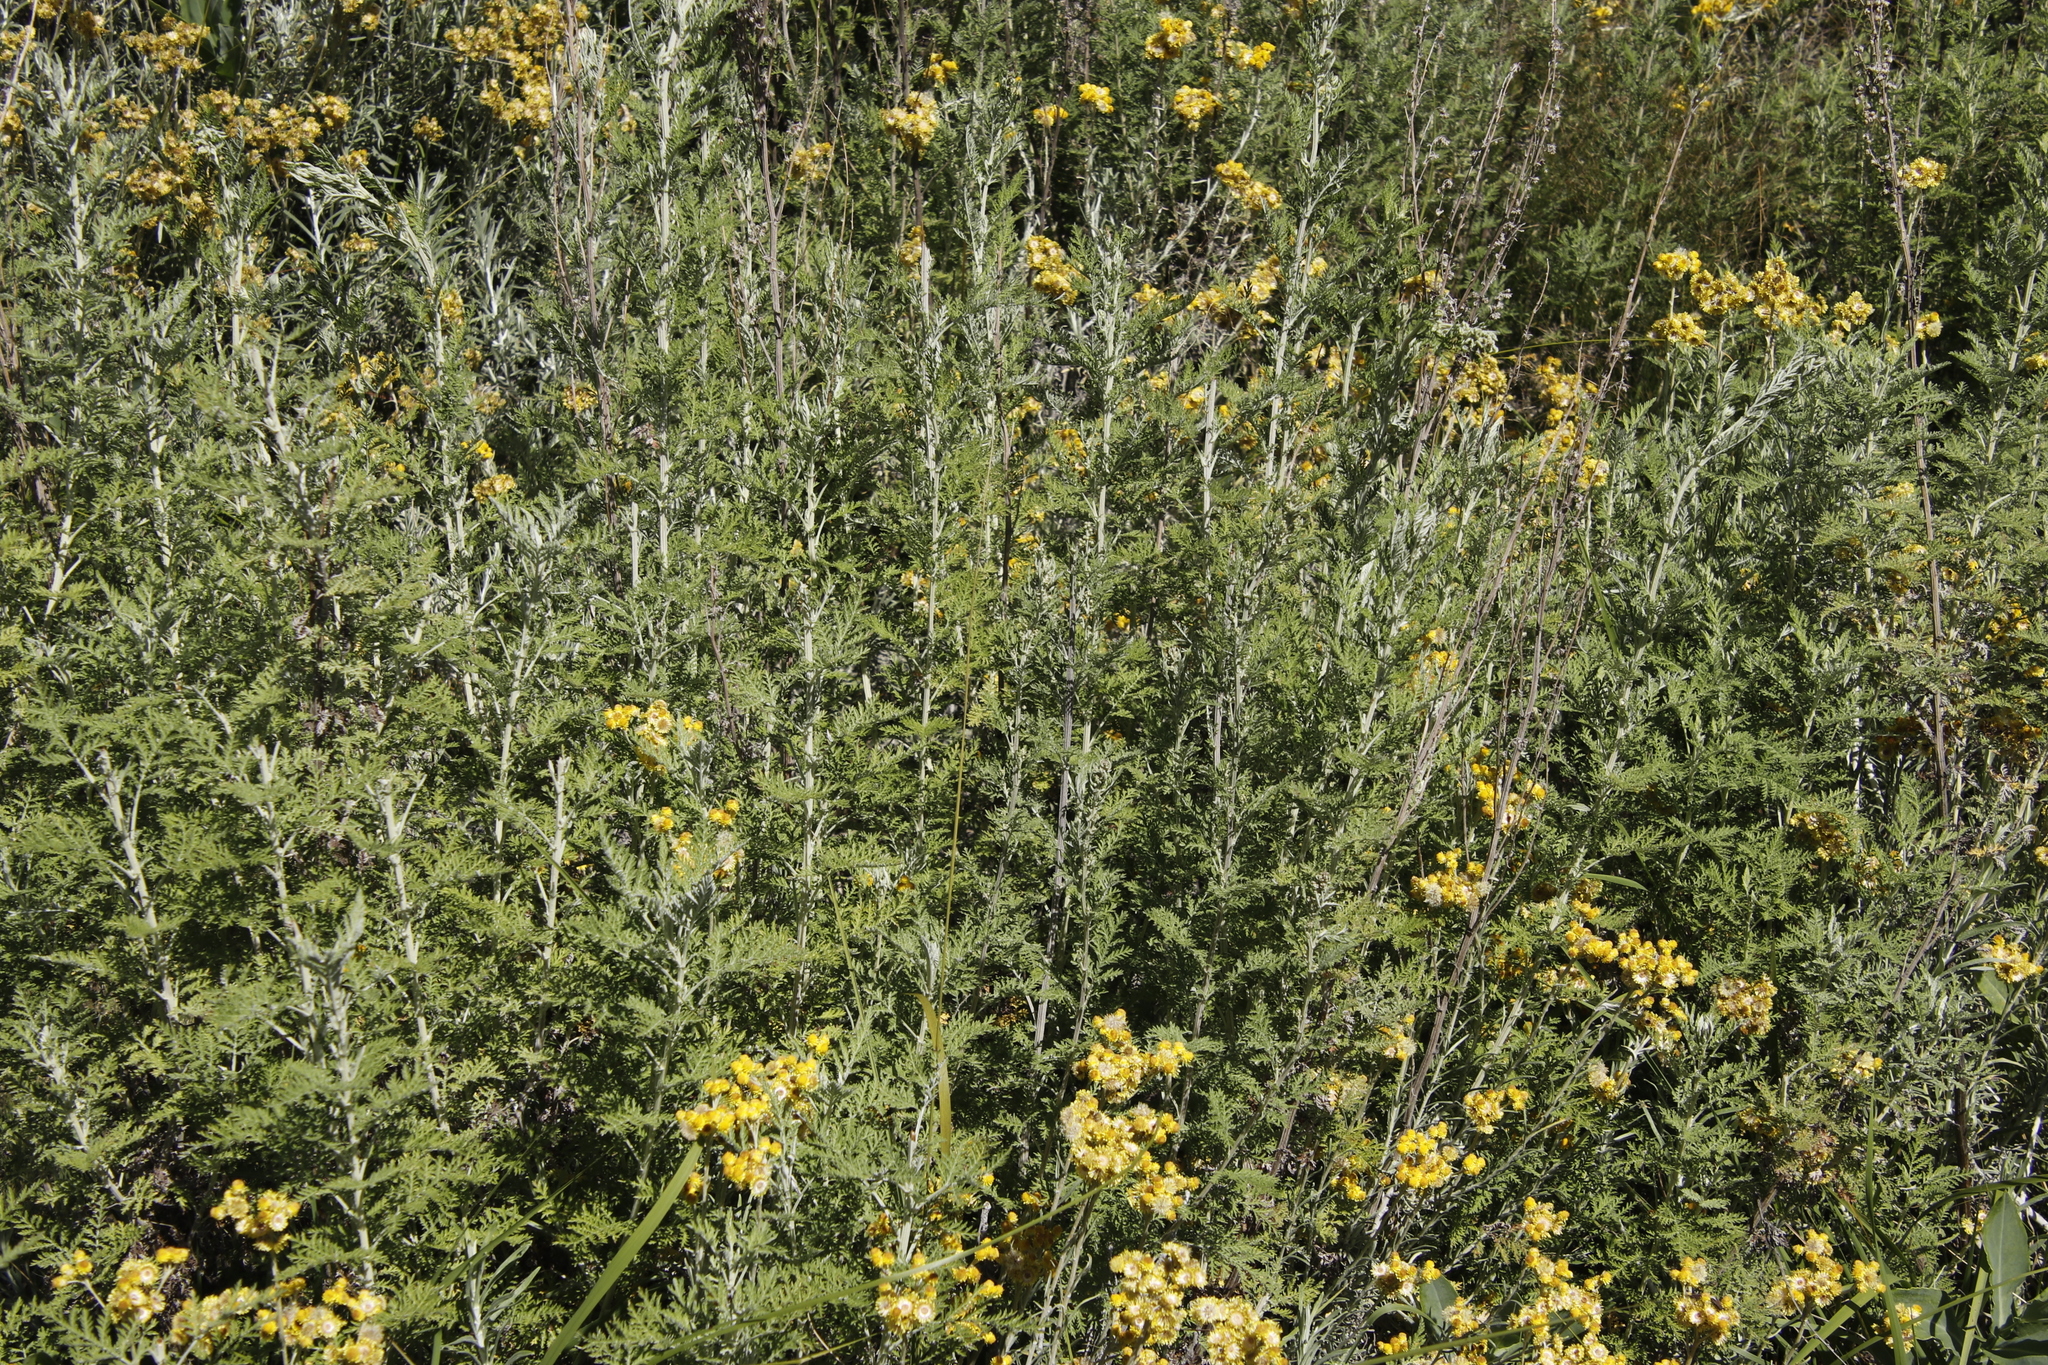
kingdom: Plantae
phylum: Tracheophyta
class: Magnoliopsida
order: Asterales
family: Asteraceae
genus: Artemisia
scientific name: Artemisia afra
